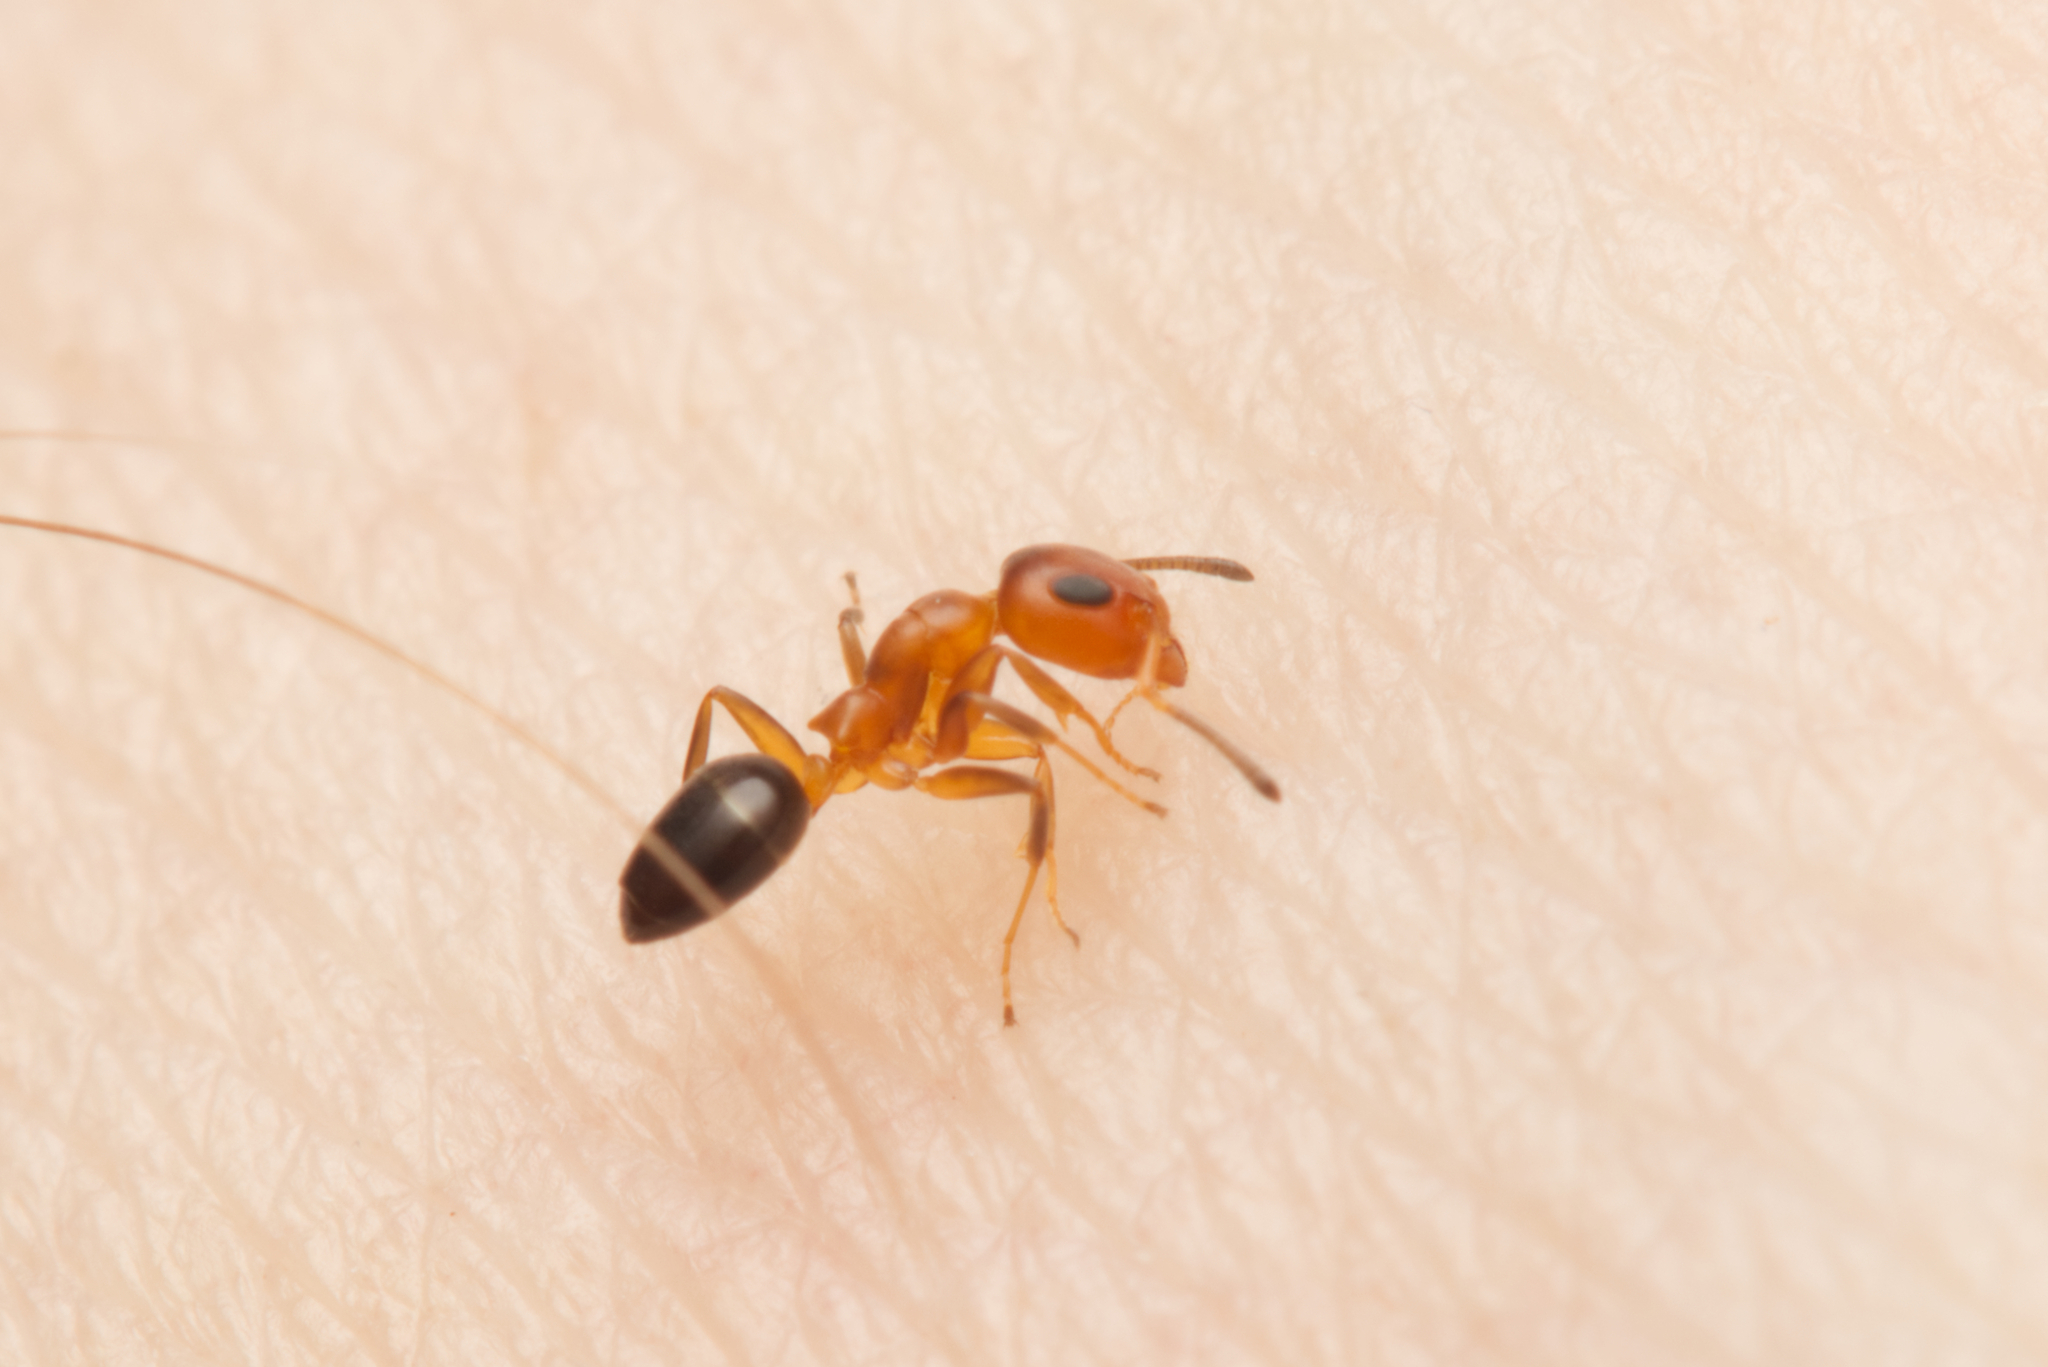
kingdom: Animalia
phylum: Arthropoda
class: Insecta
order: Hymenoptera
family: Formicidae
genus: Turneria
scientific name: Turneria bidentata
